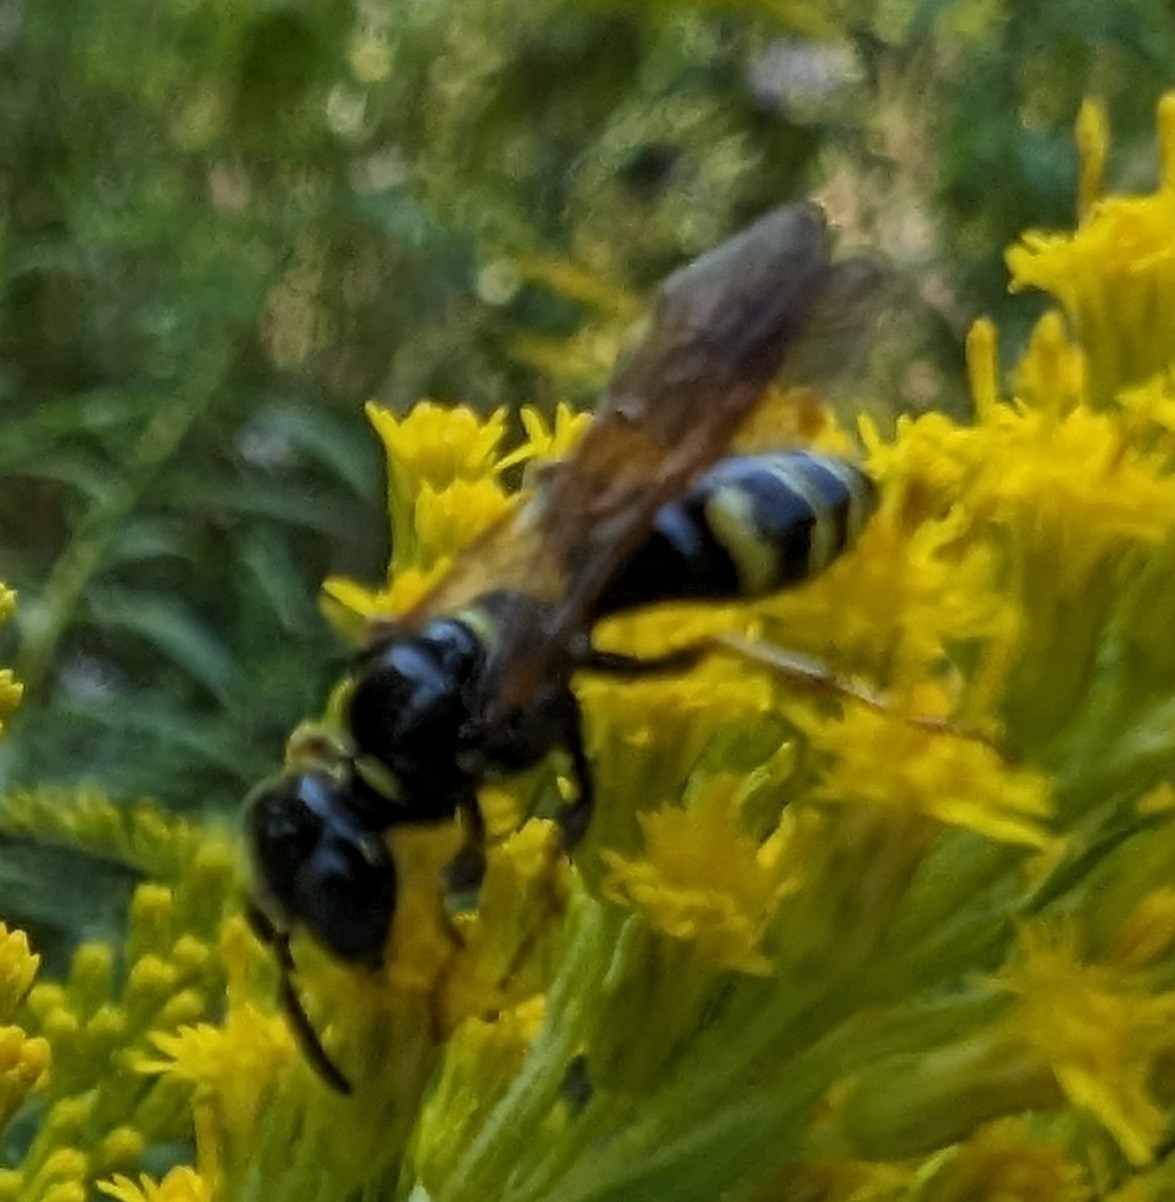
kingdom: Animalia
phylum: Arthropoda
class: Insecta
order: Hymenoptera
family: Crabronidae
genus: Philanthus
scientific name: Philanthus bilunatus
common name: Two moons beewolf
